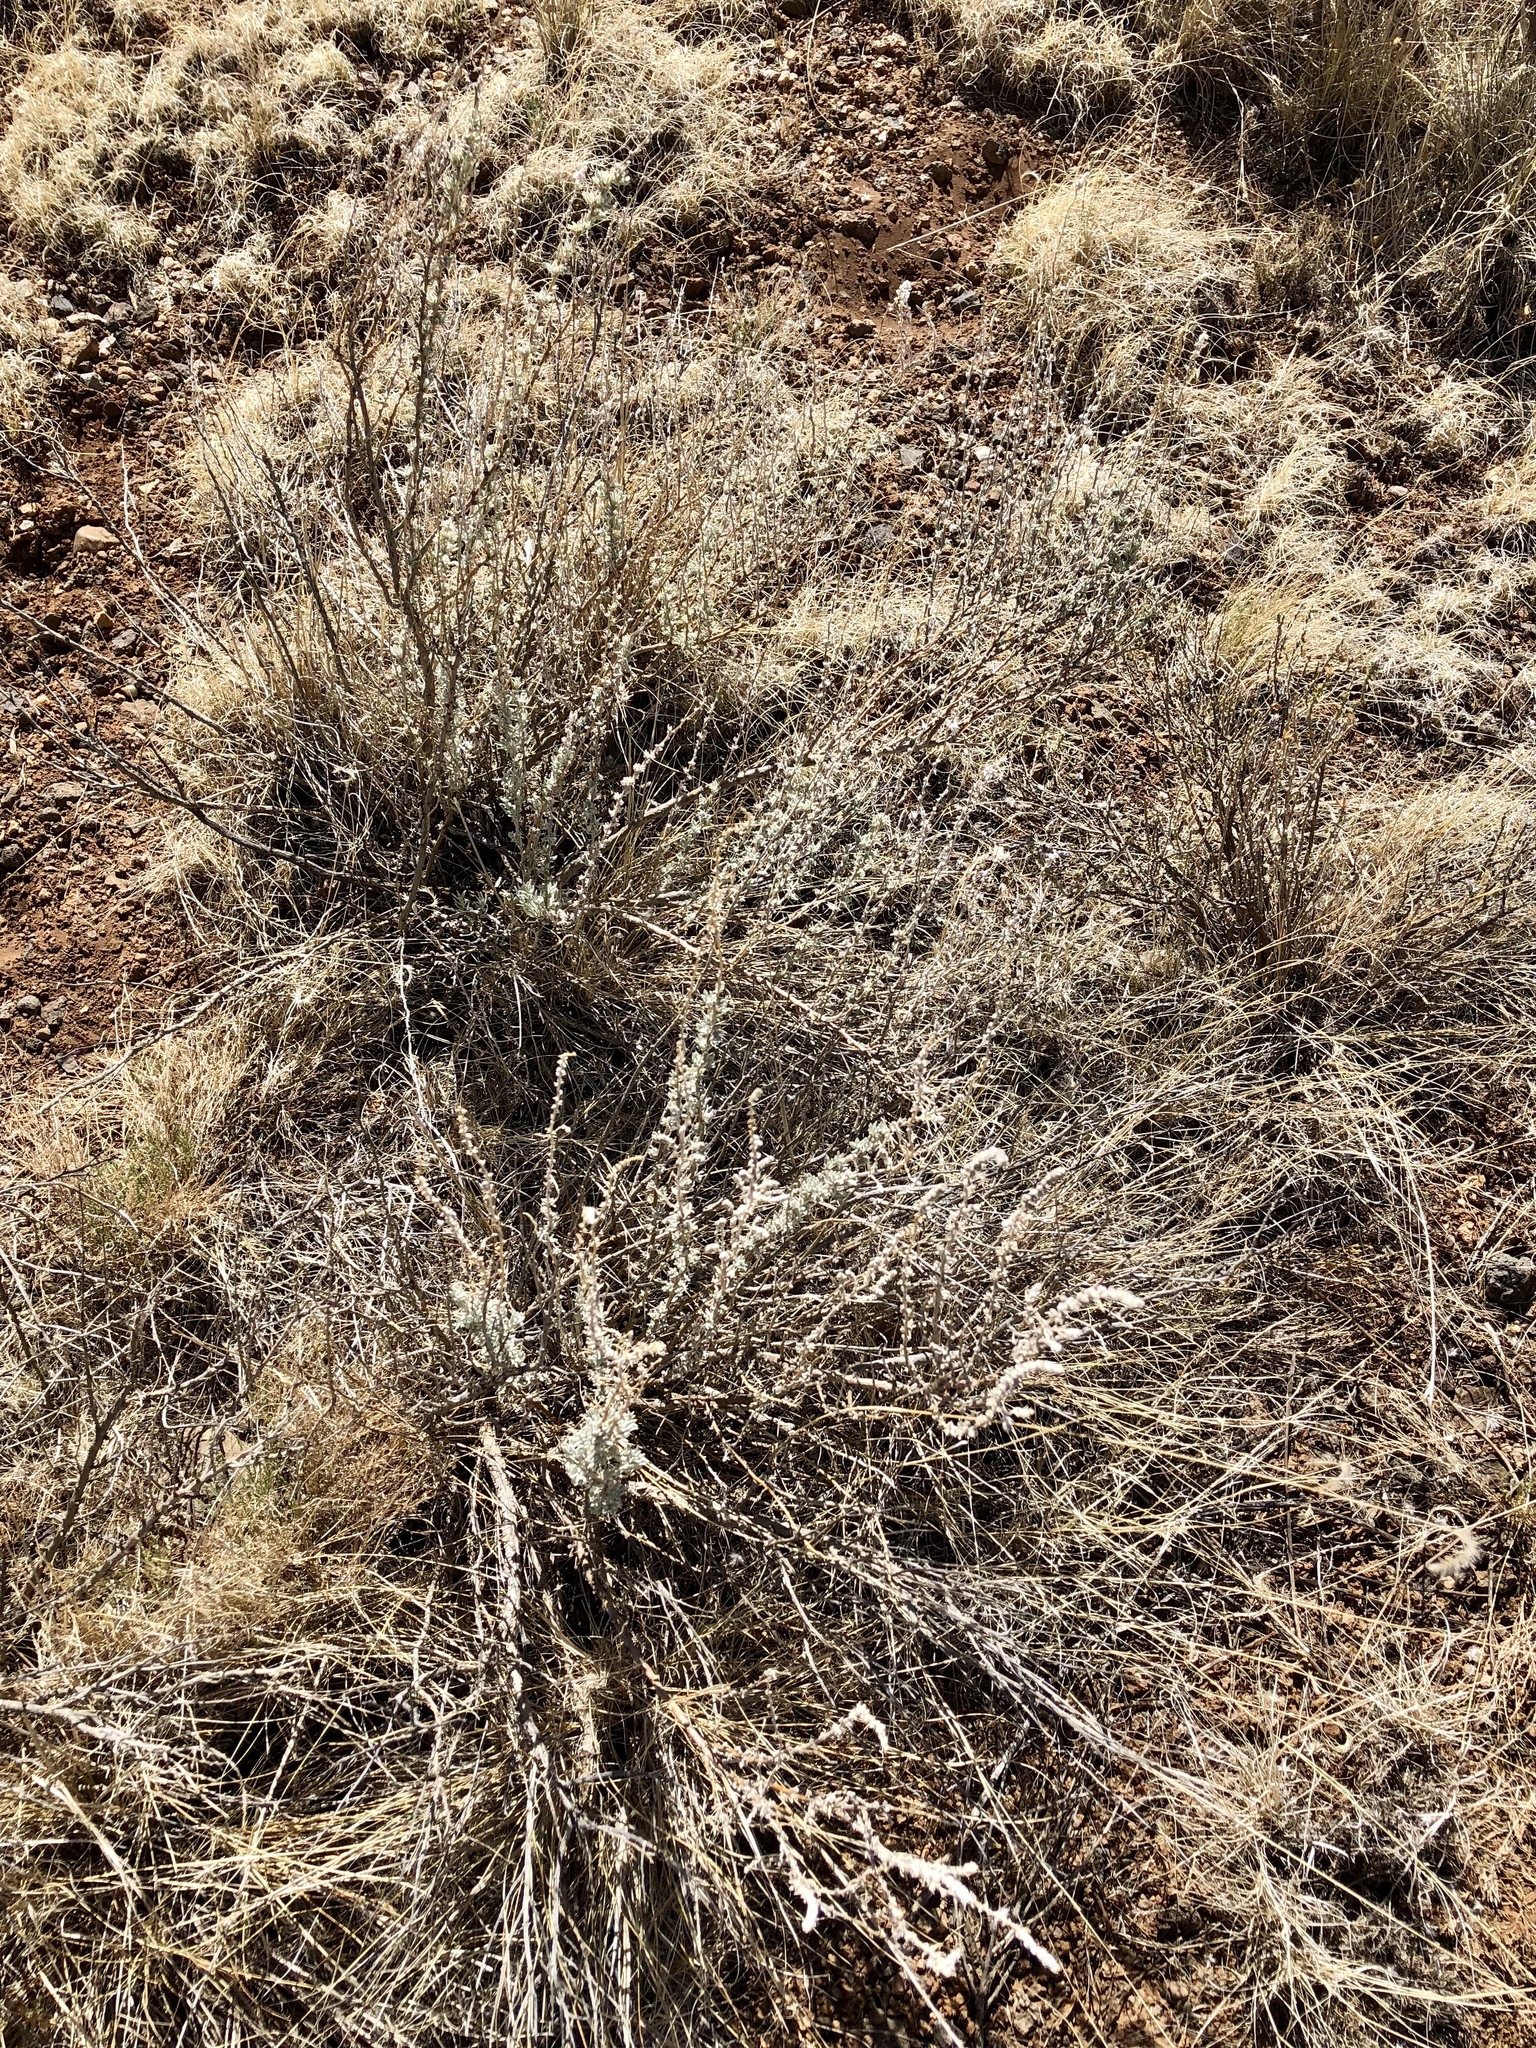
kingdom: Plantae
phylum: Tracheophyta
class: Magnoliopsida
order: Asterales
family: Asteraceae
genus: Artemisia
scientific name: Artemisia frigida
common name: Prairie sagewort
